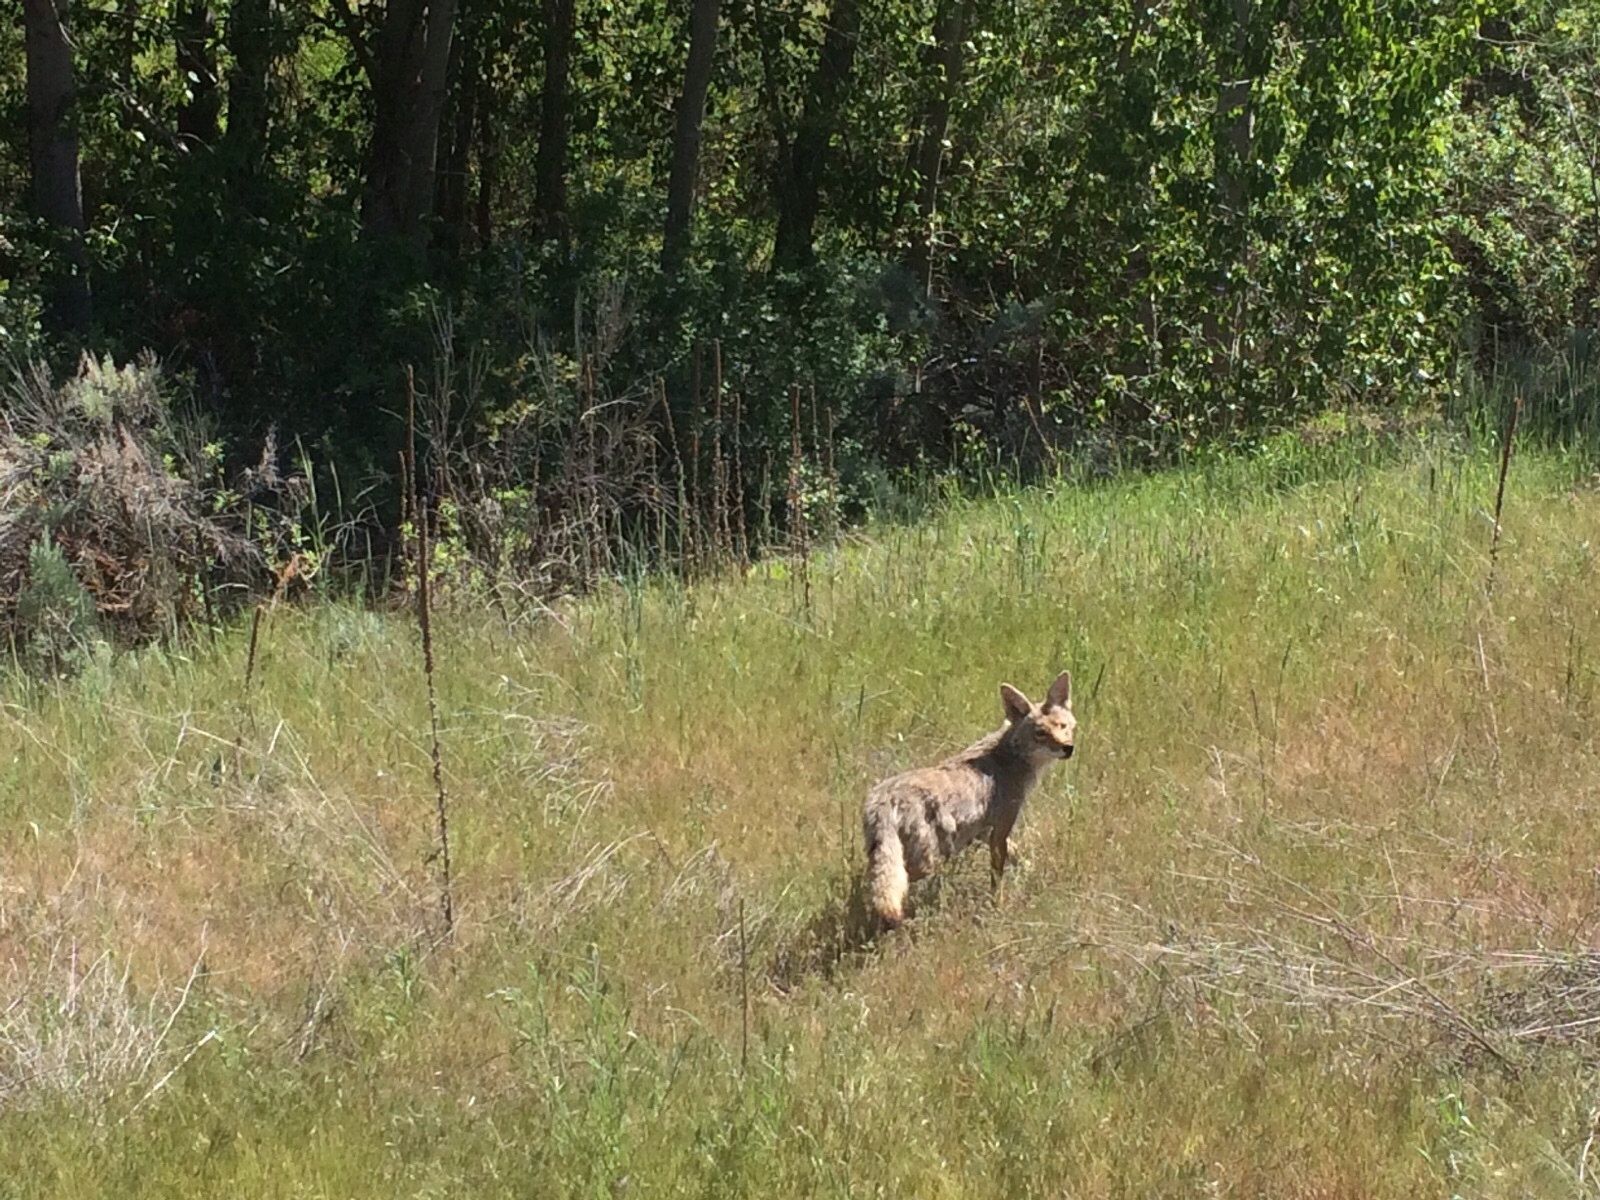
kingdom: Animalia
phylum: Chordata
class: Mammalia
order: Carnivora
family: Canidae
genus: Canis
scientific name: Canis latrans
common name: Coyote
